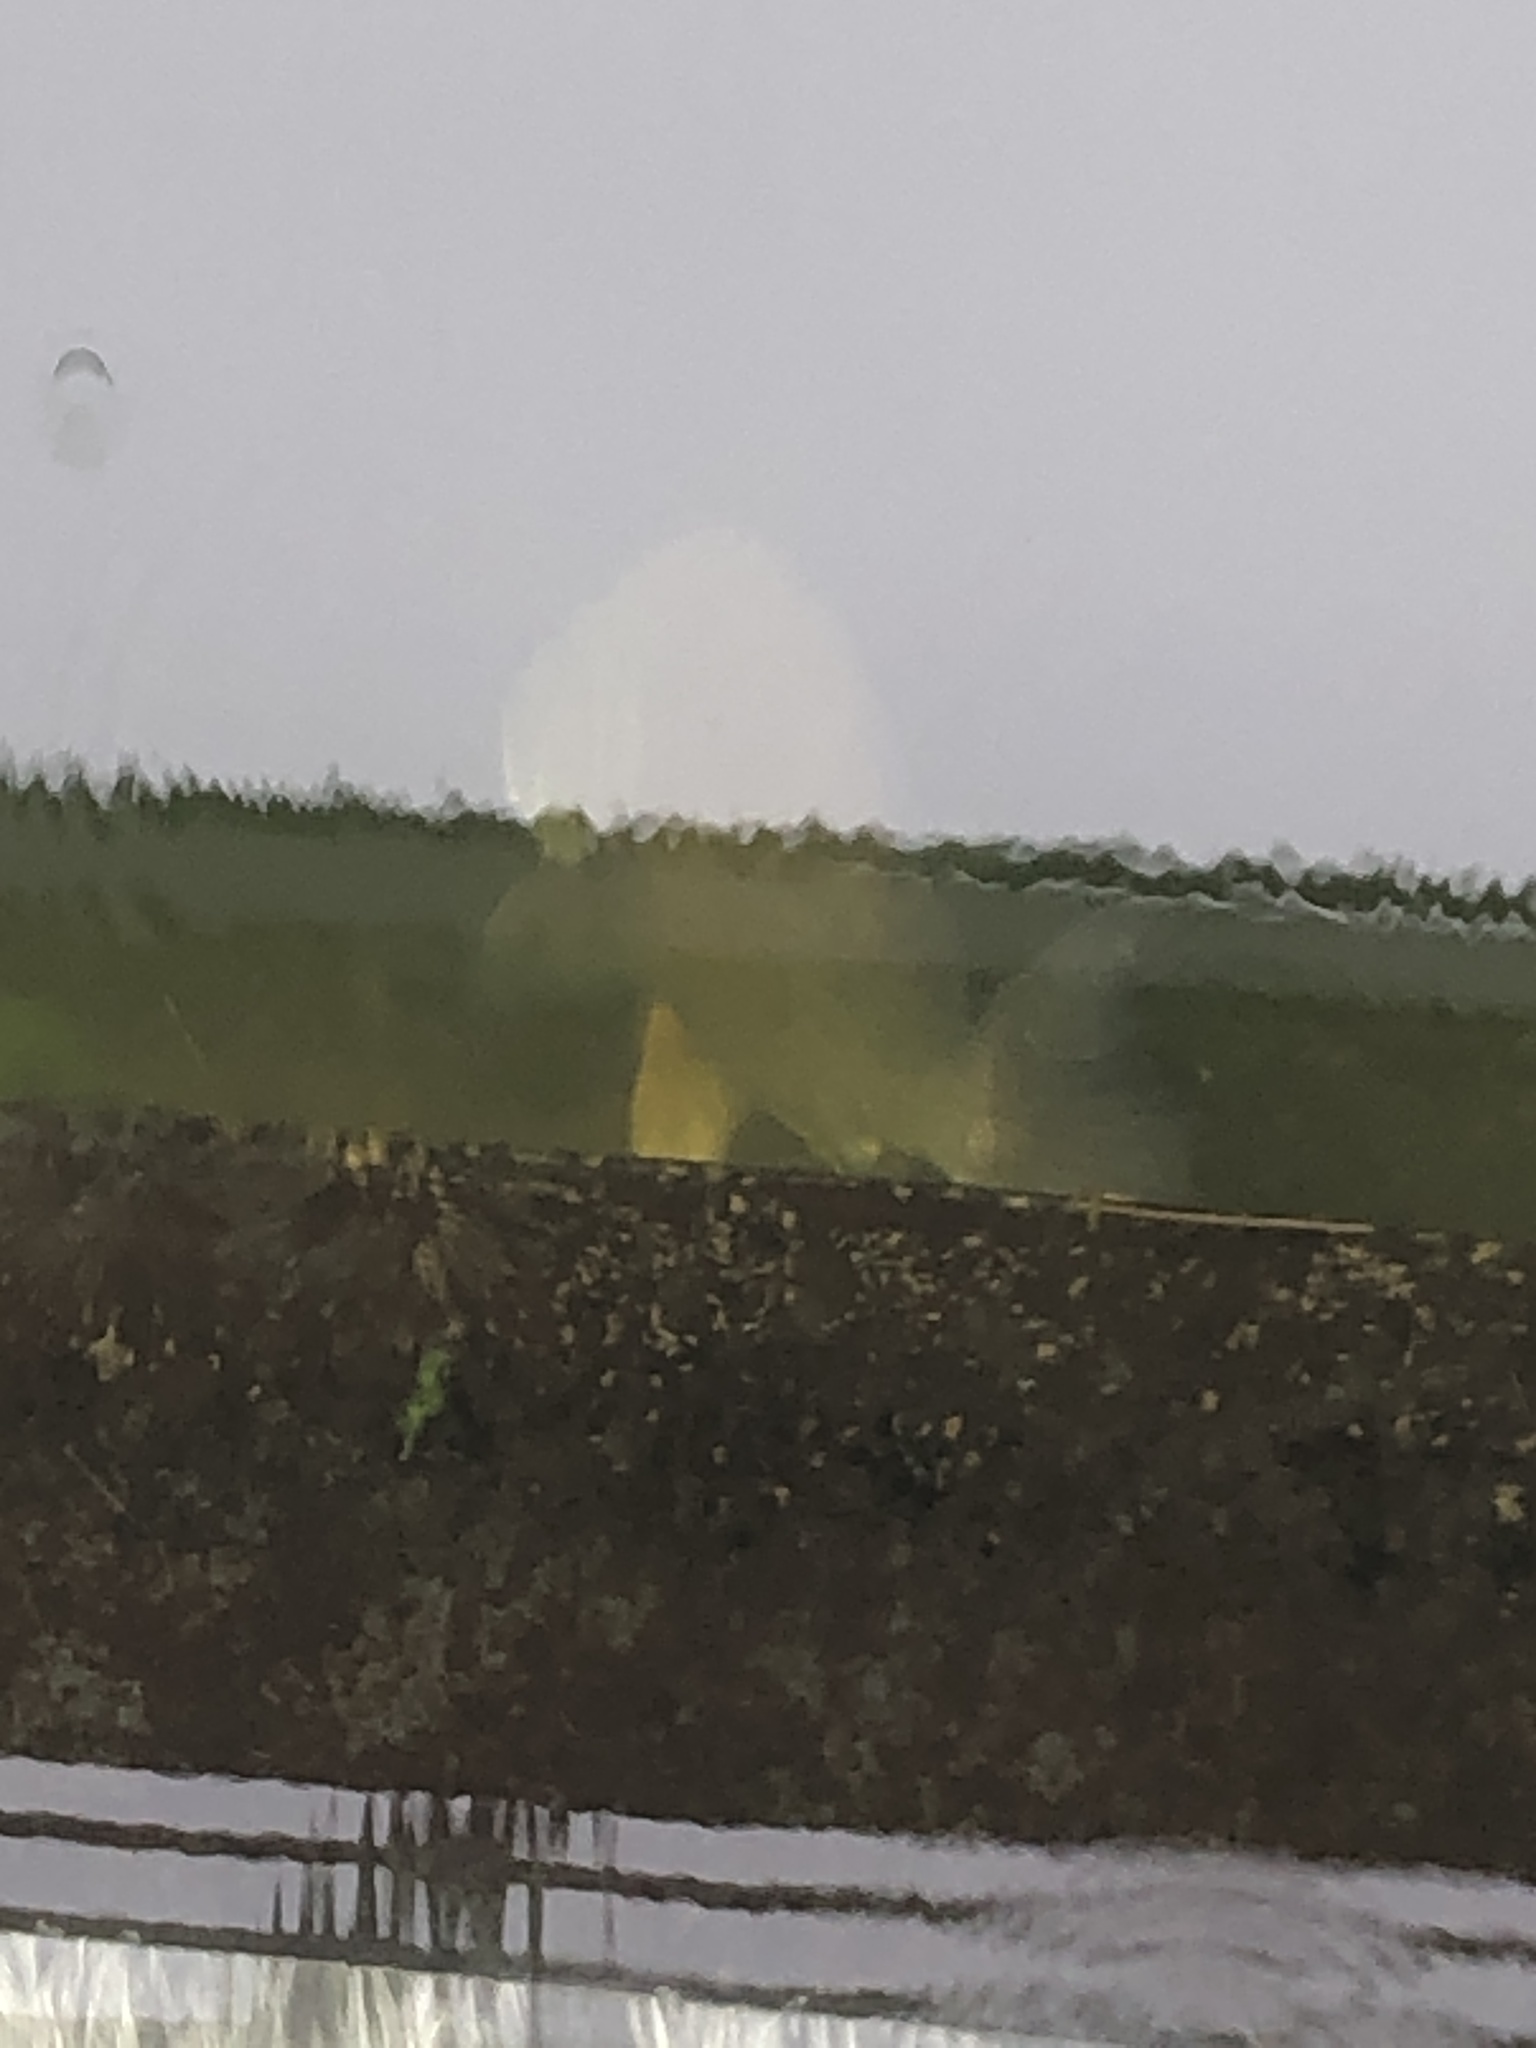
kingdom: Animalia
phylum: Chordata
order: Perciformes
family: Sciaenidae
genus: Aplodinotus
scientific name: Aplodinotus grunniens
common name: Freshwater drum
